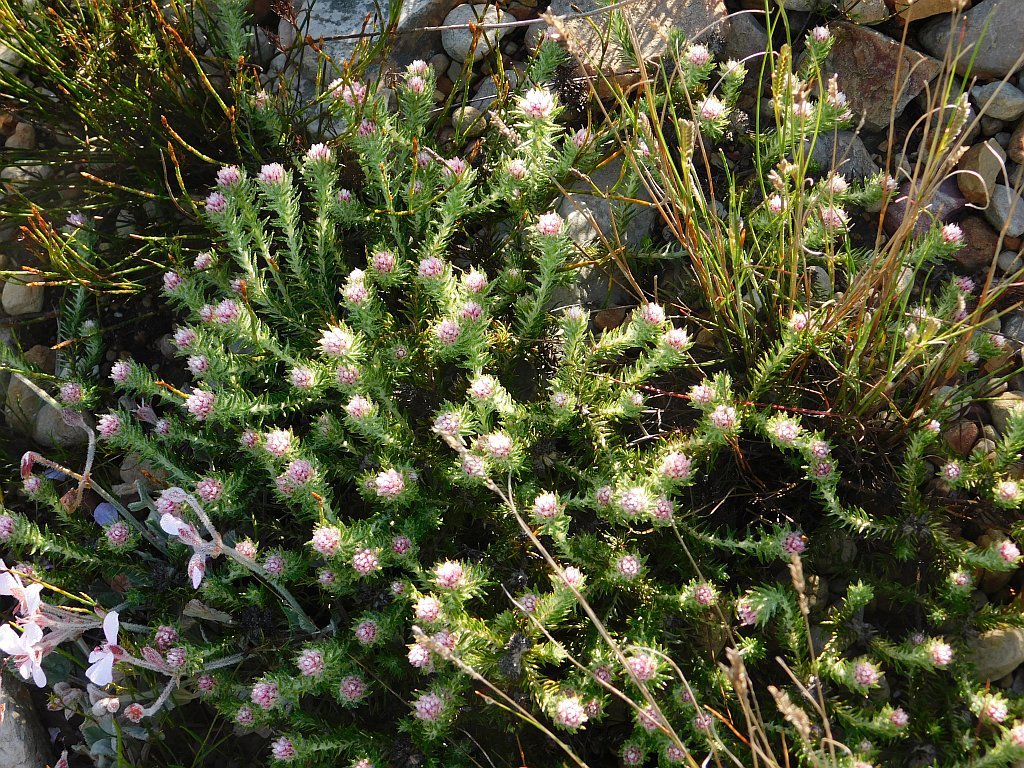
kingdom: Plantae
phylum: Tracheophyta
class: Magnoliopsida
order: Asterales
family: Asteraceae
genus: Metalasia
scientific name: Metalasia erubescens
